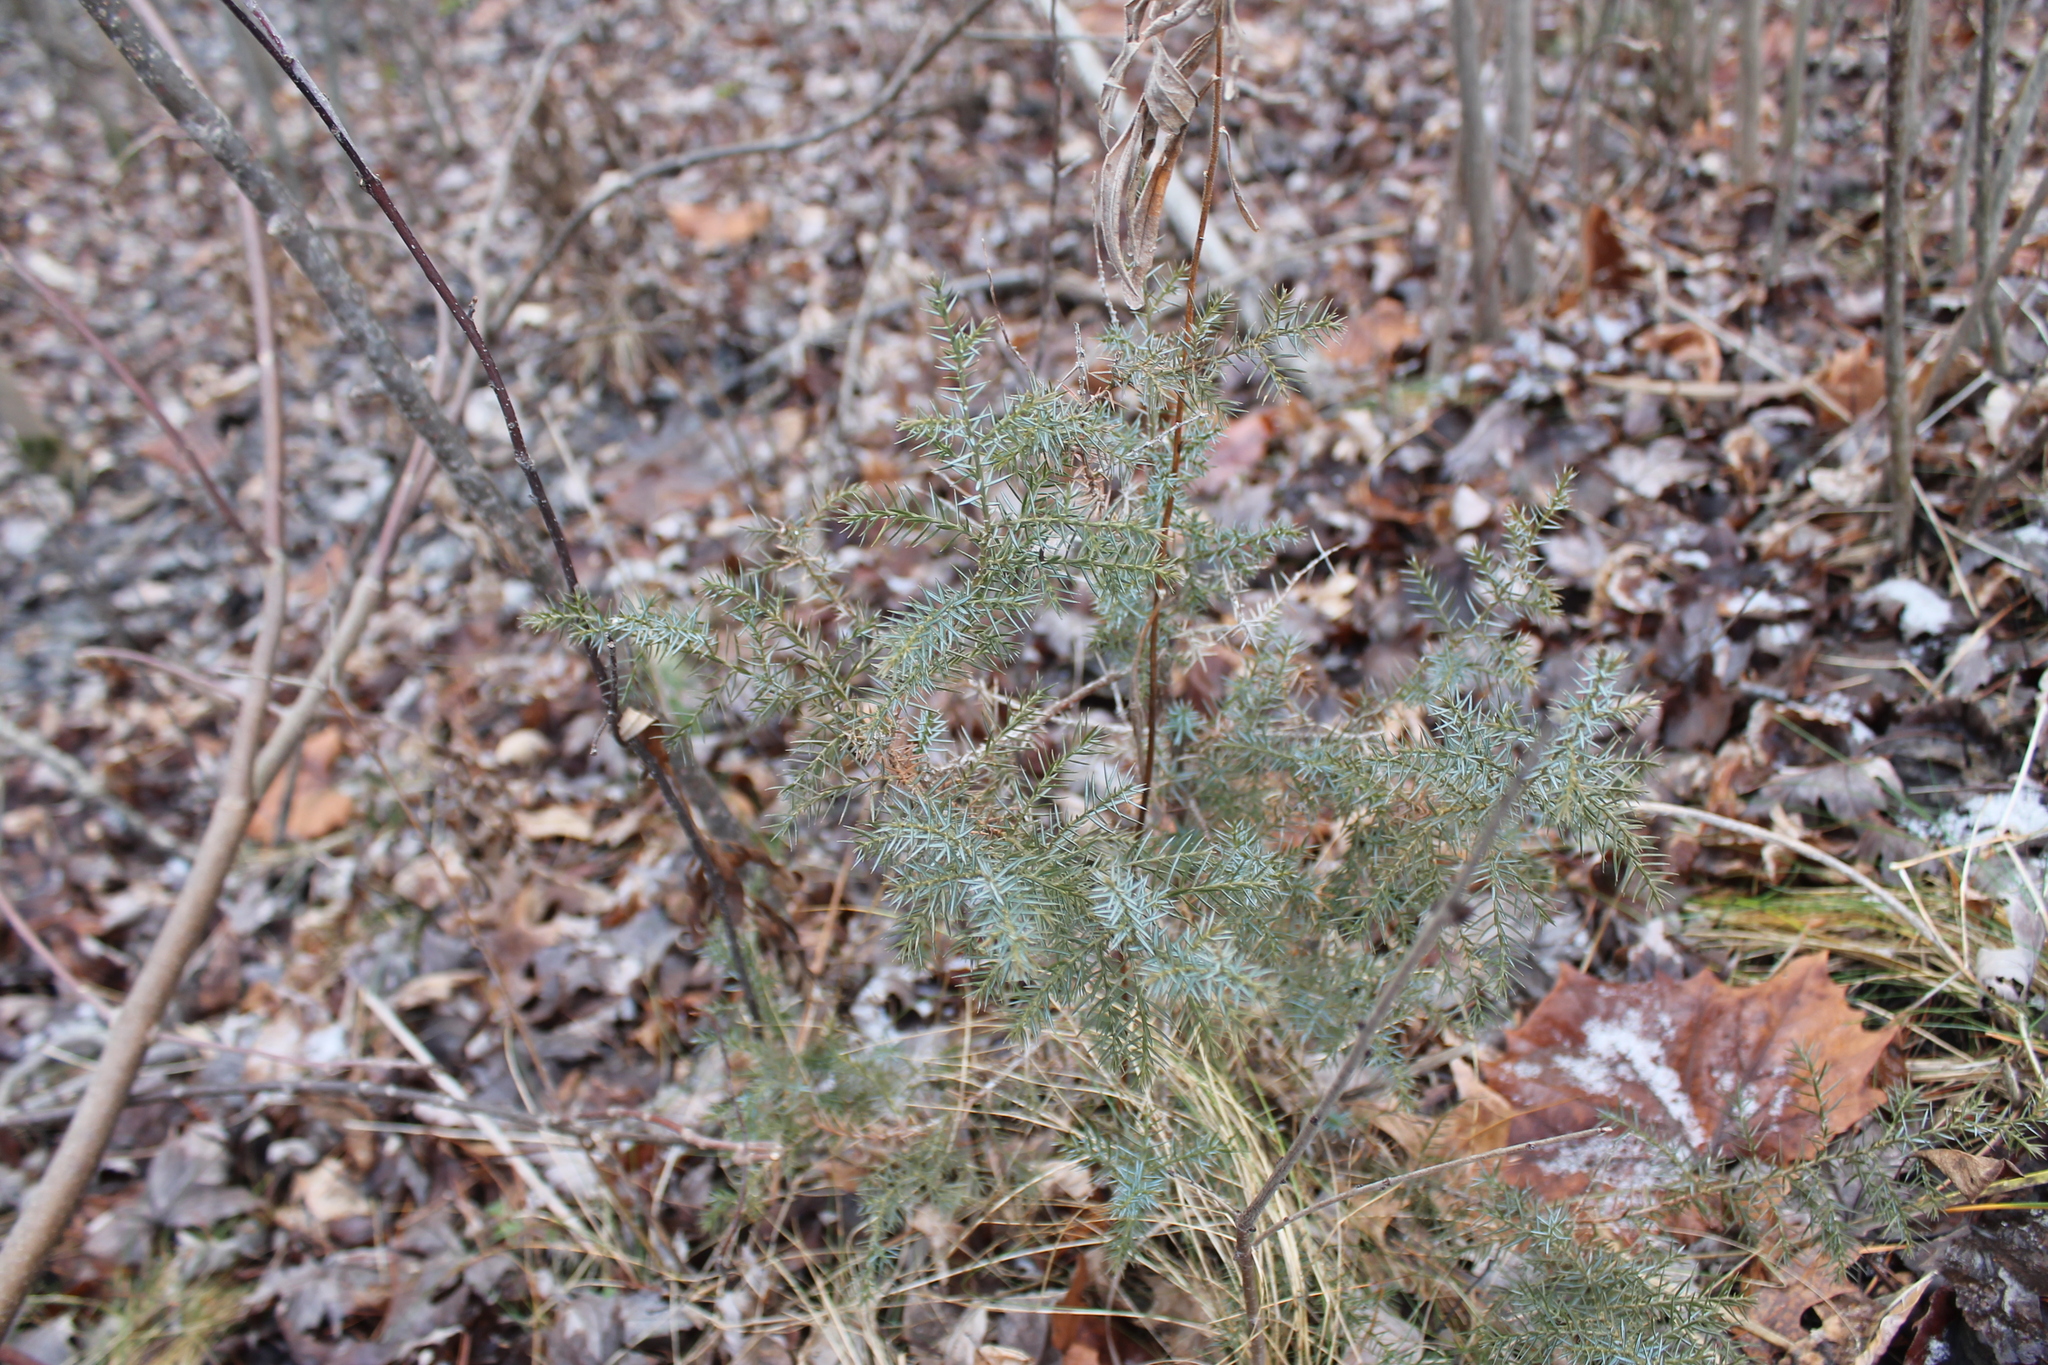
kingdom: Plantae
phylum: Tracheophyta
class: Pinopsida
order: Pinales
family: Cupressaceae
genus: Juniperus
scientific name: Juniperus communis
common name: Common juniper
